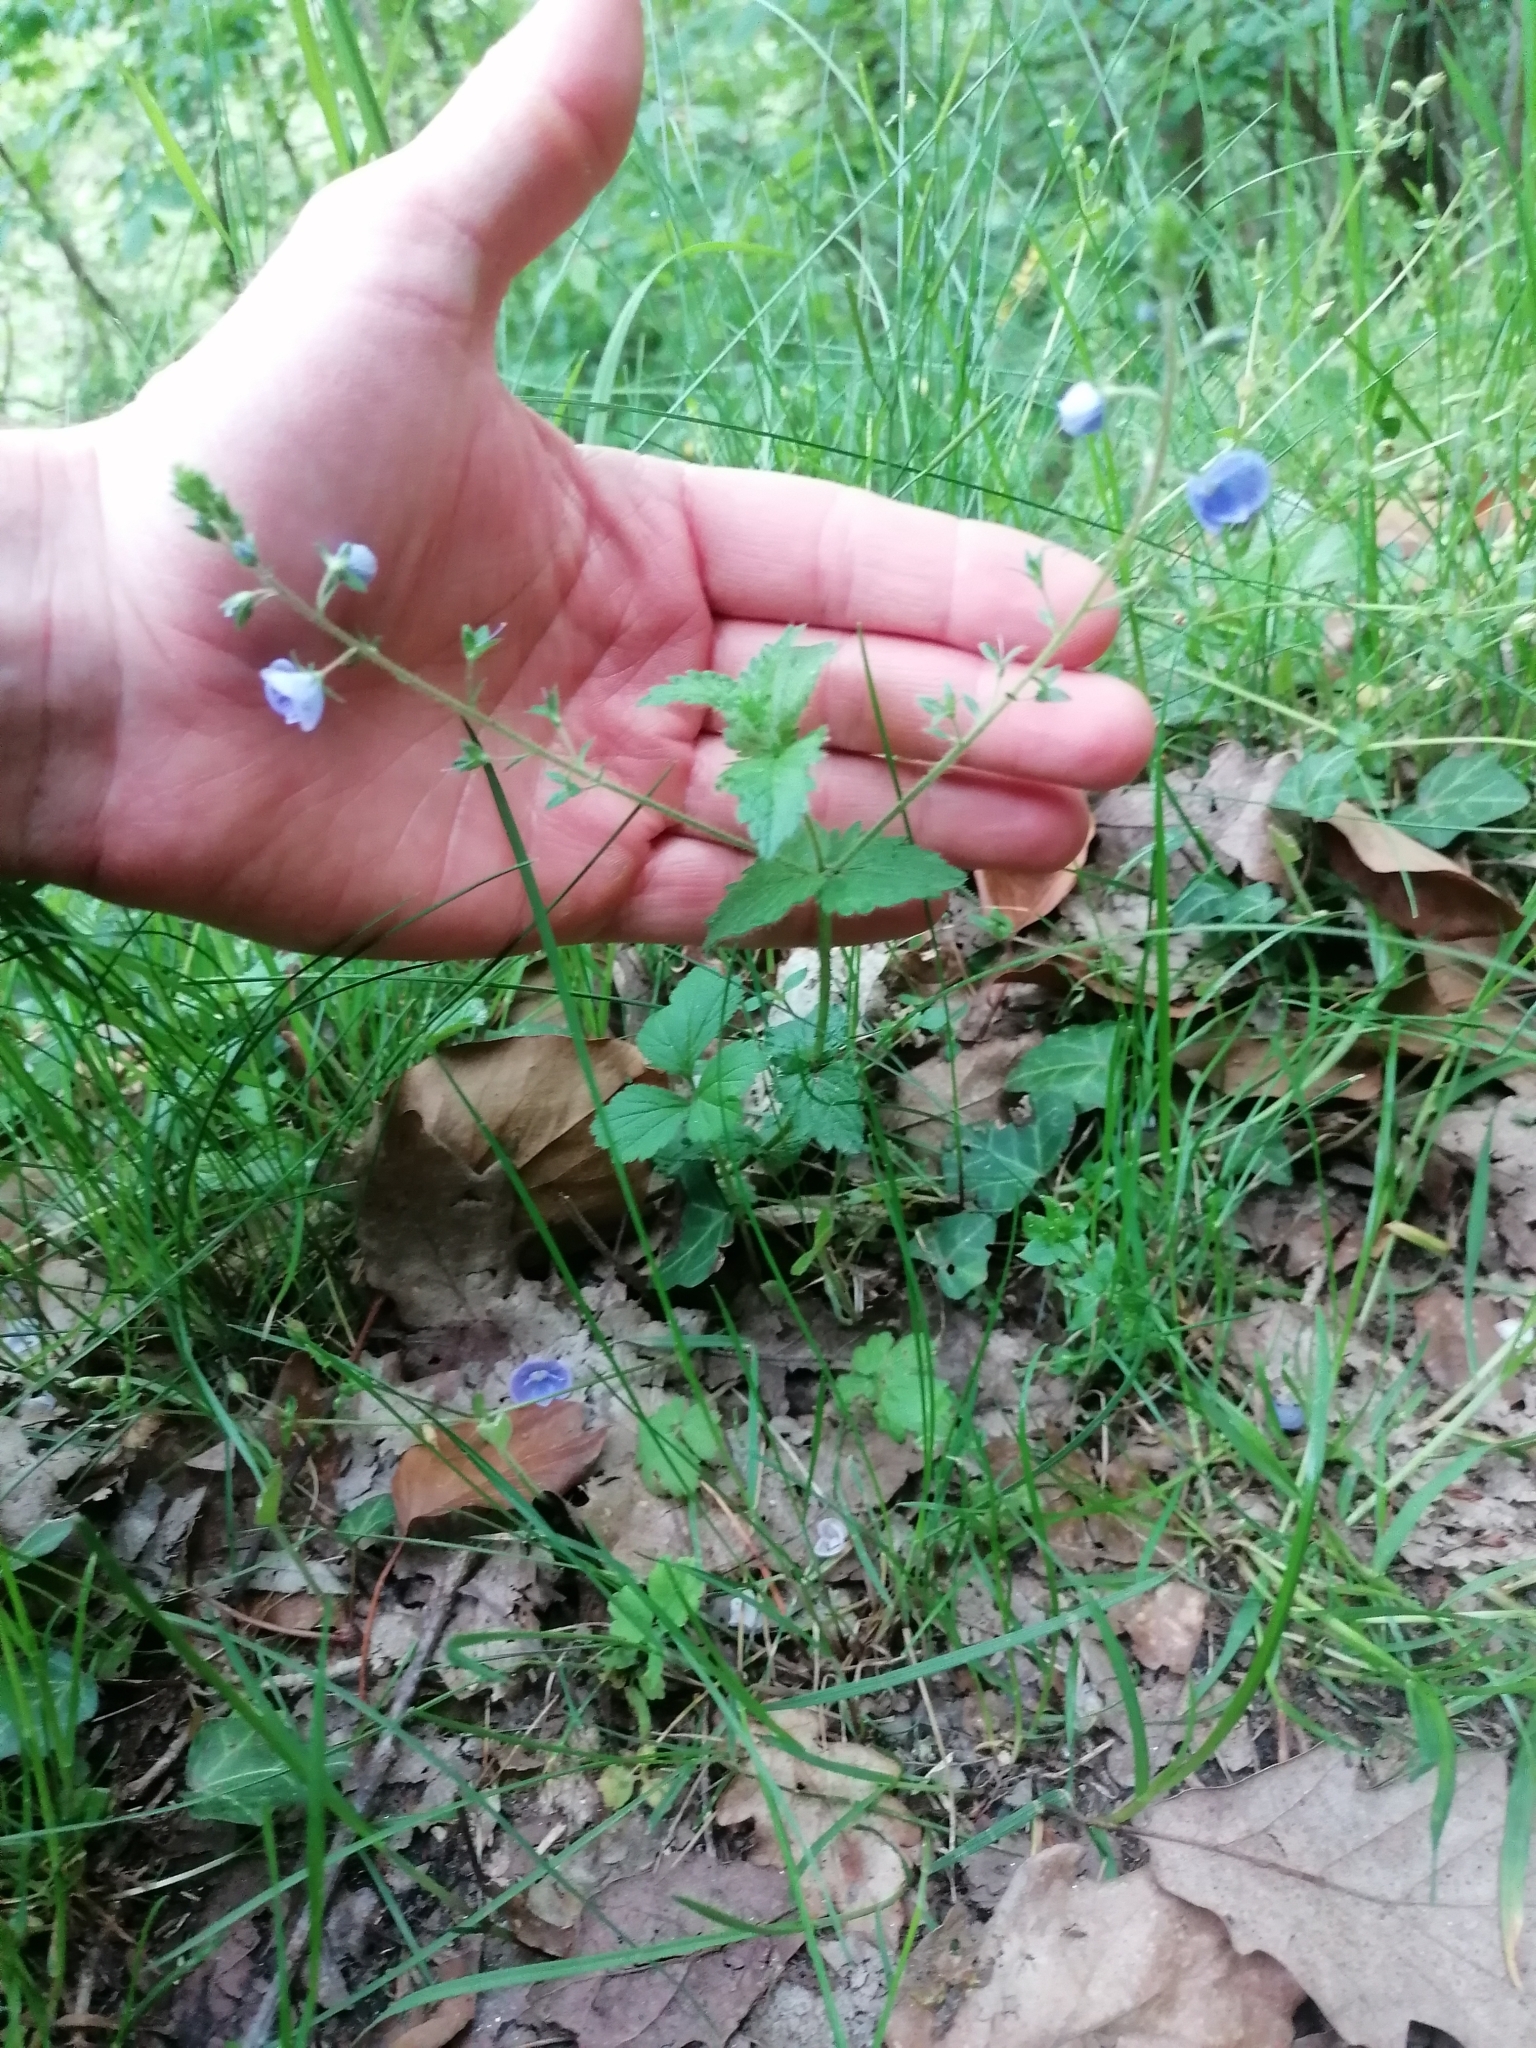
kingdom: Plantae
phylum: Tracheophyta
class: Magnoliopsida
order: Lamiales
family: Plantaginaceae
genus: Veronica
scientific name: Veronica chamaedrys
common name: Germander speedwell
